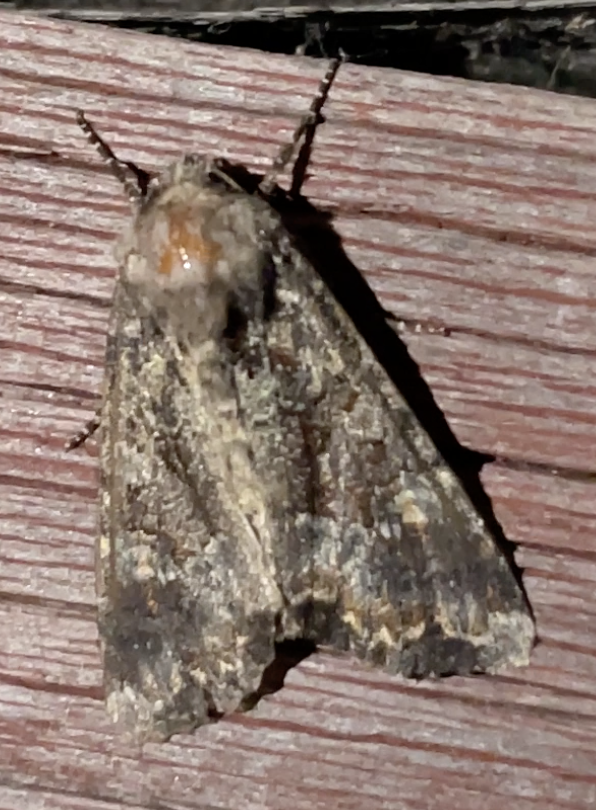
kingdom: Animalia
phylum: Arthropoda
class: Insecta
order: Lepidoptera
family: Noctuidae
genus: Apamea
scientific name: Apamea amputatrix
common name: Yellow-headed cutworm moth
